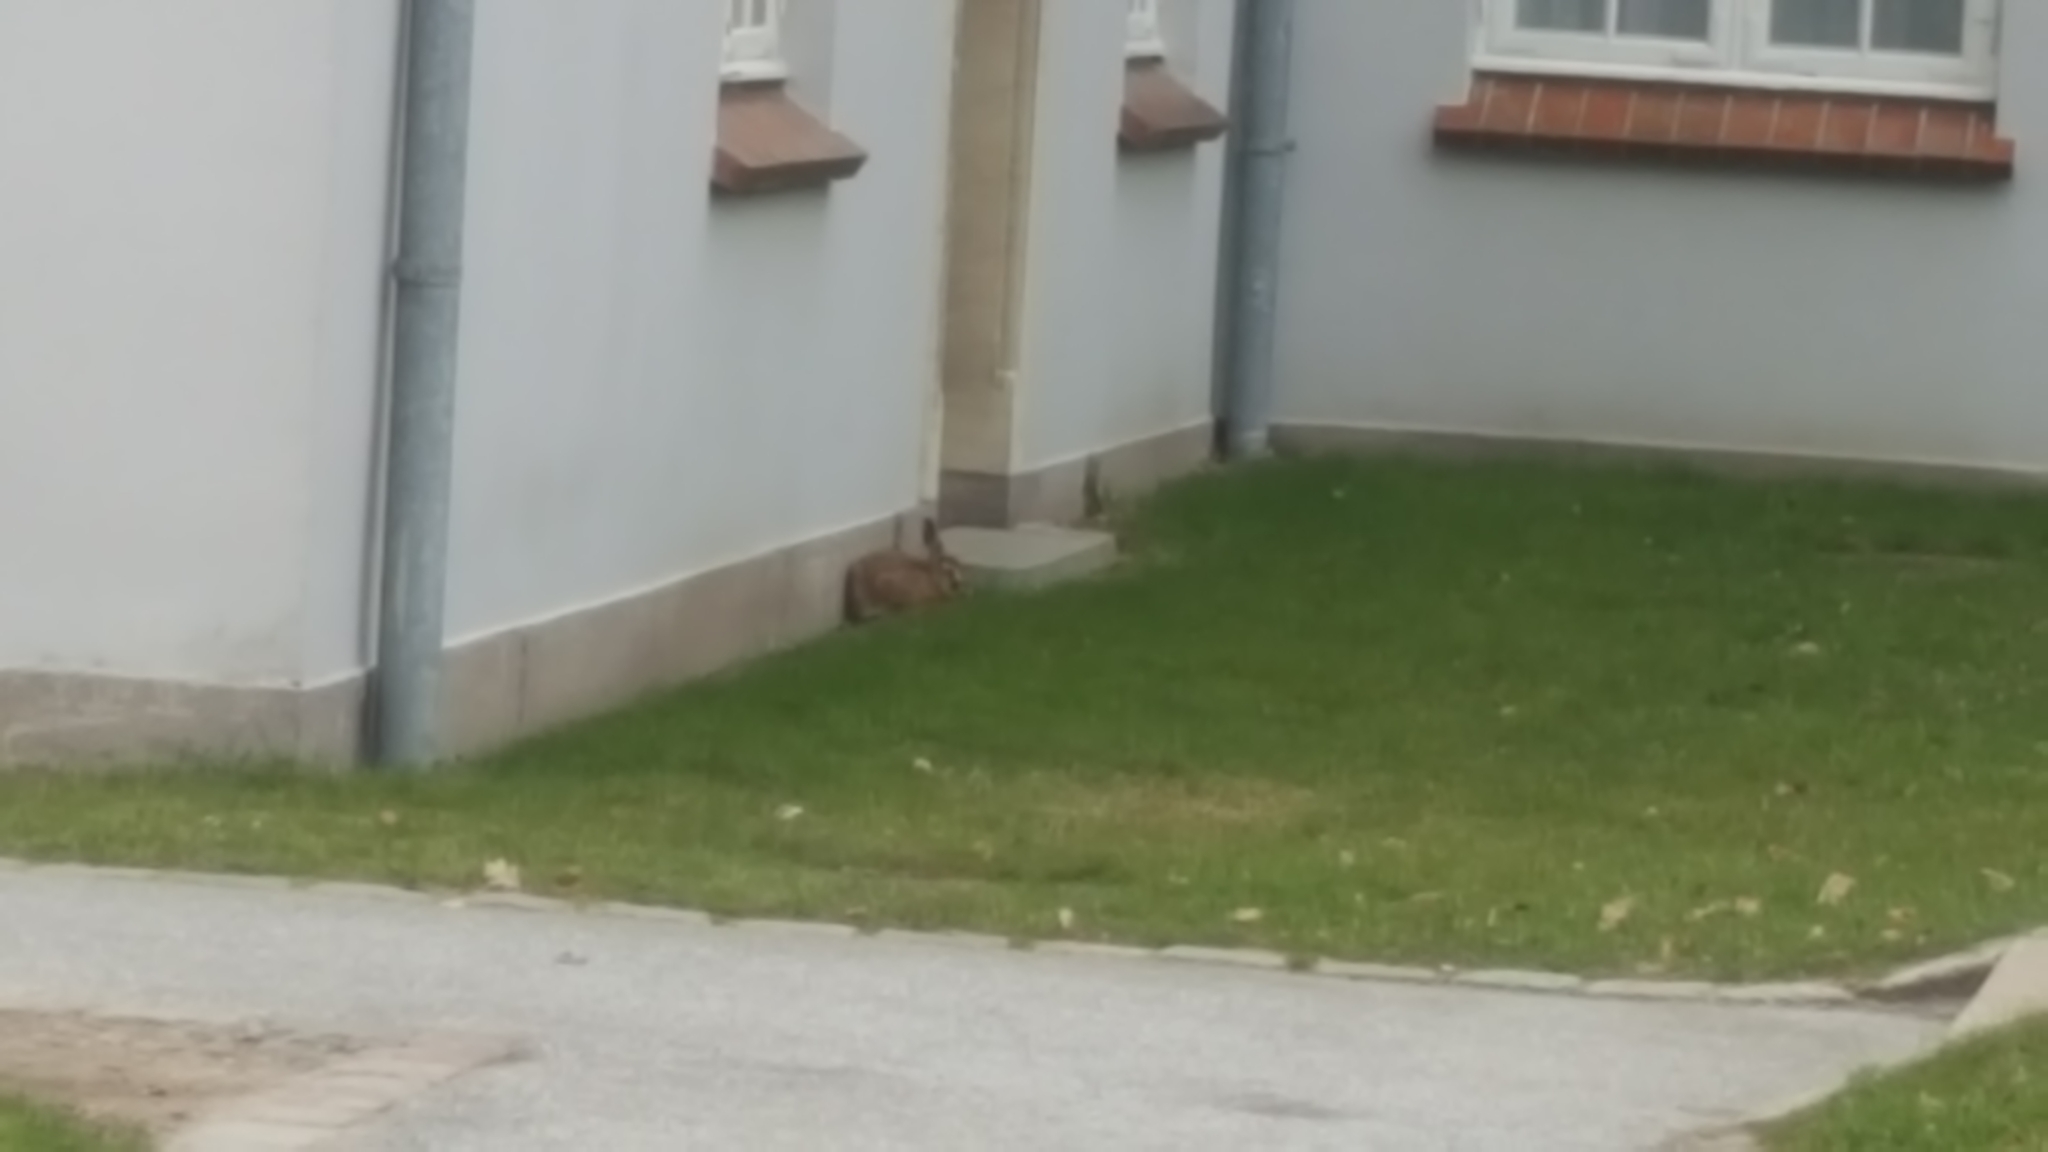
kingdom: Animalia
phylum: Chordata
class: Mammalia
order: Lagomorpha
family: Leporidae
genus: Lepus
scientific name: Lepus europaeus
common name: European hare
